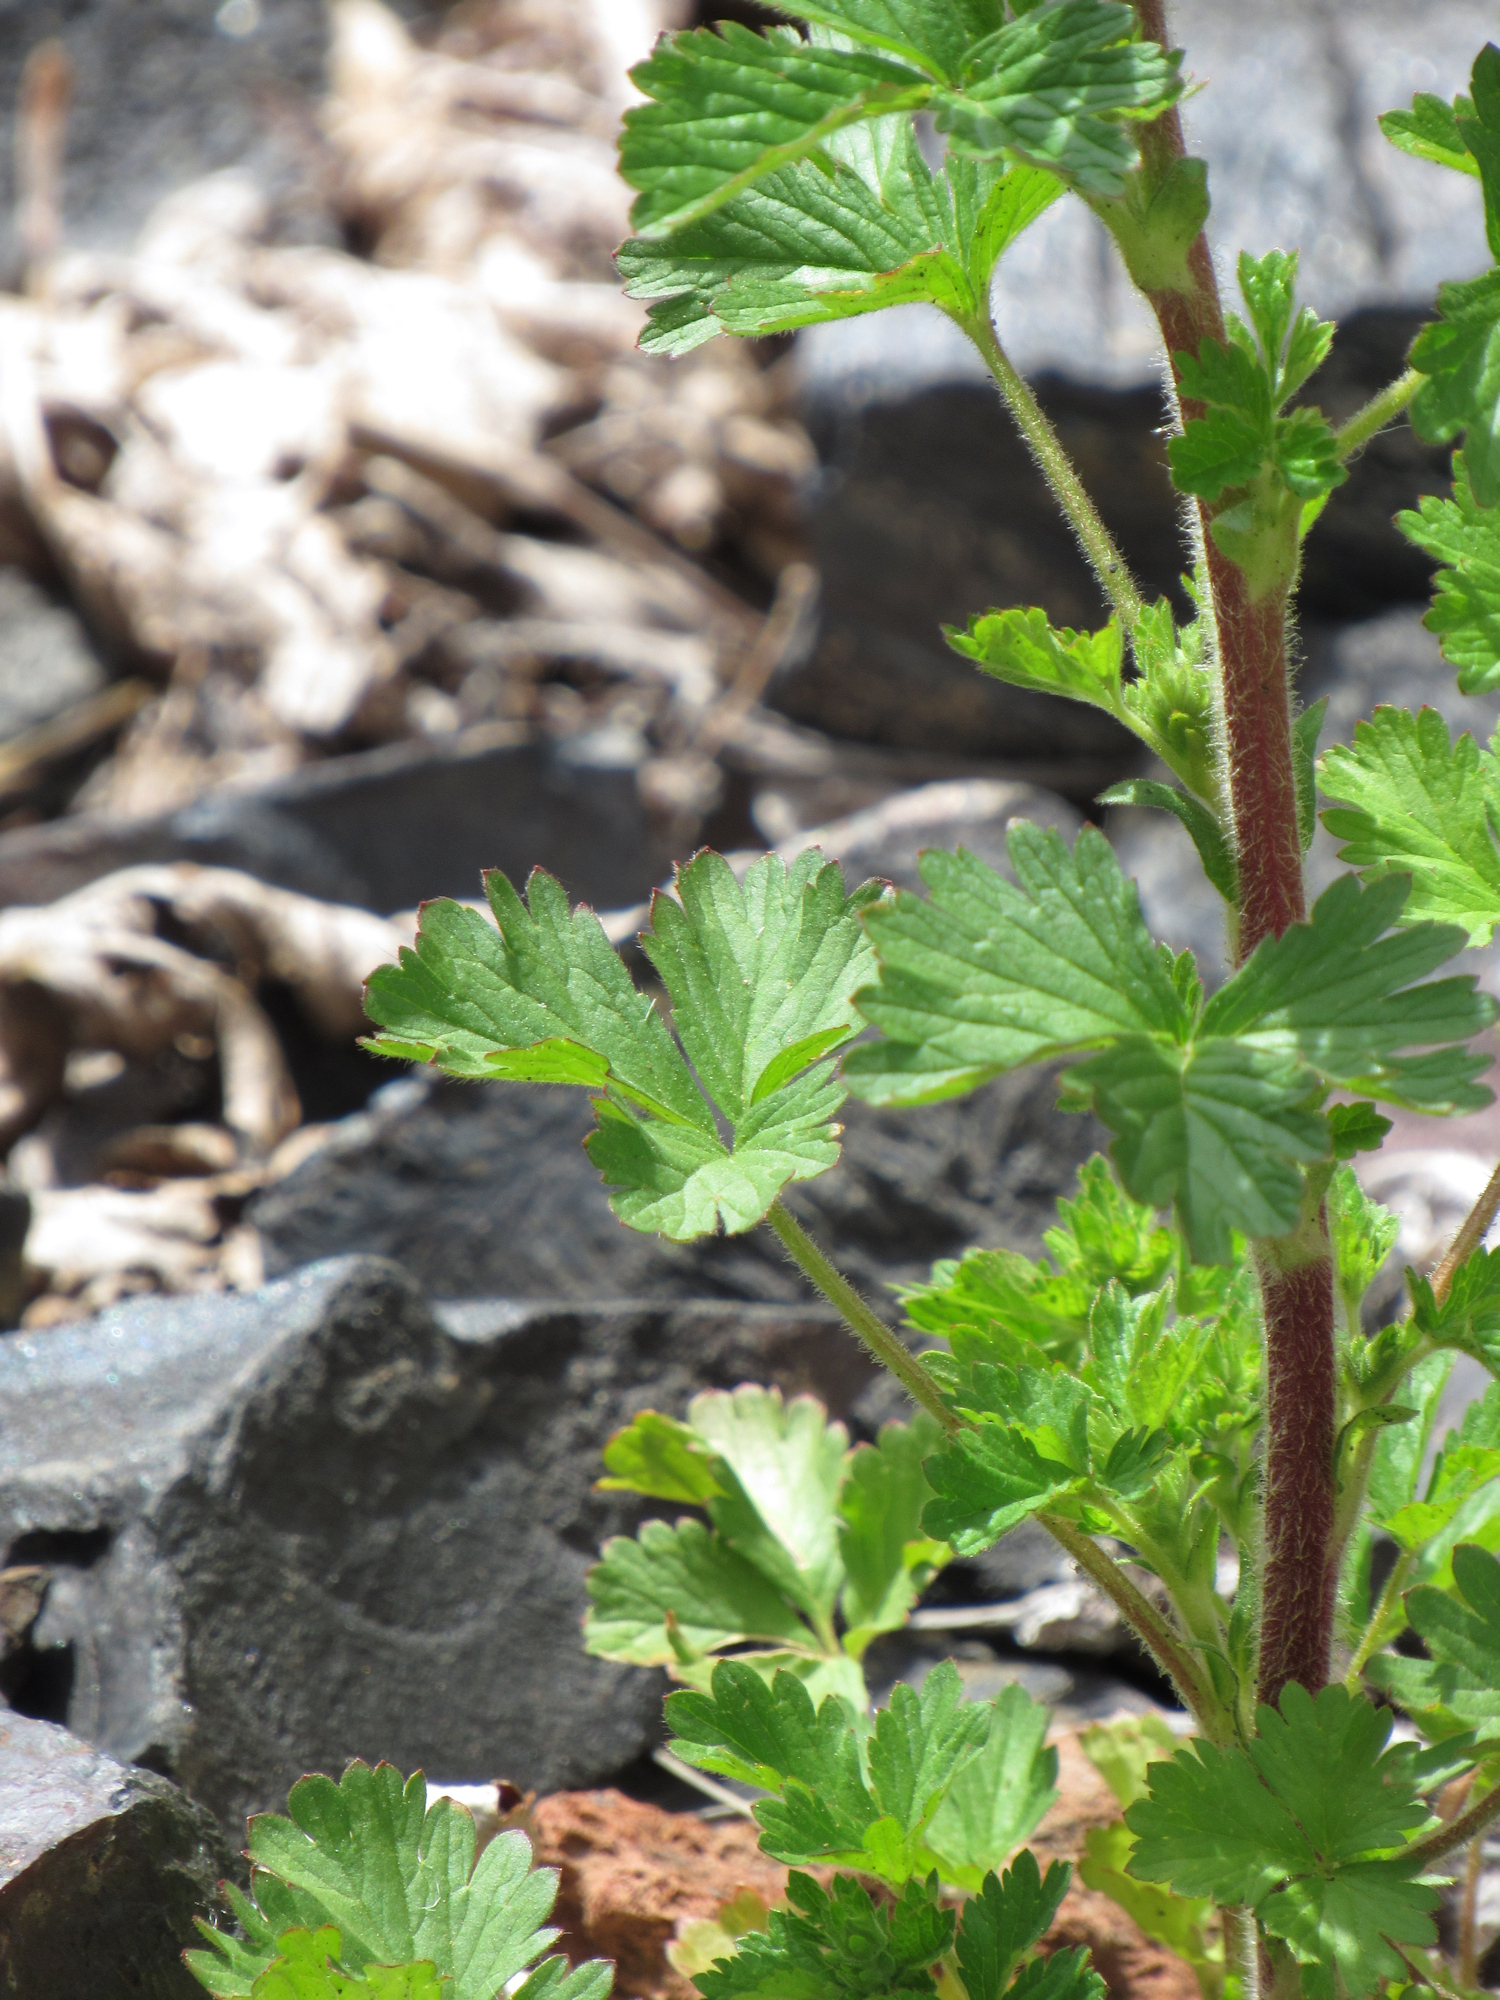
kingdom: Plantae
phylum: Tracheophyta
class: Magnoliopsida
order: Rosales
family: Rosaceae
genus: Potentilla
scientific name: Potentilla norvegica
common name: Ternate-leaved cinquefoil
